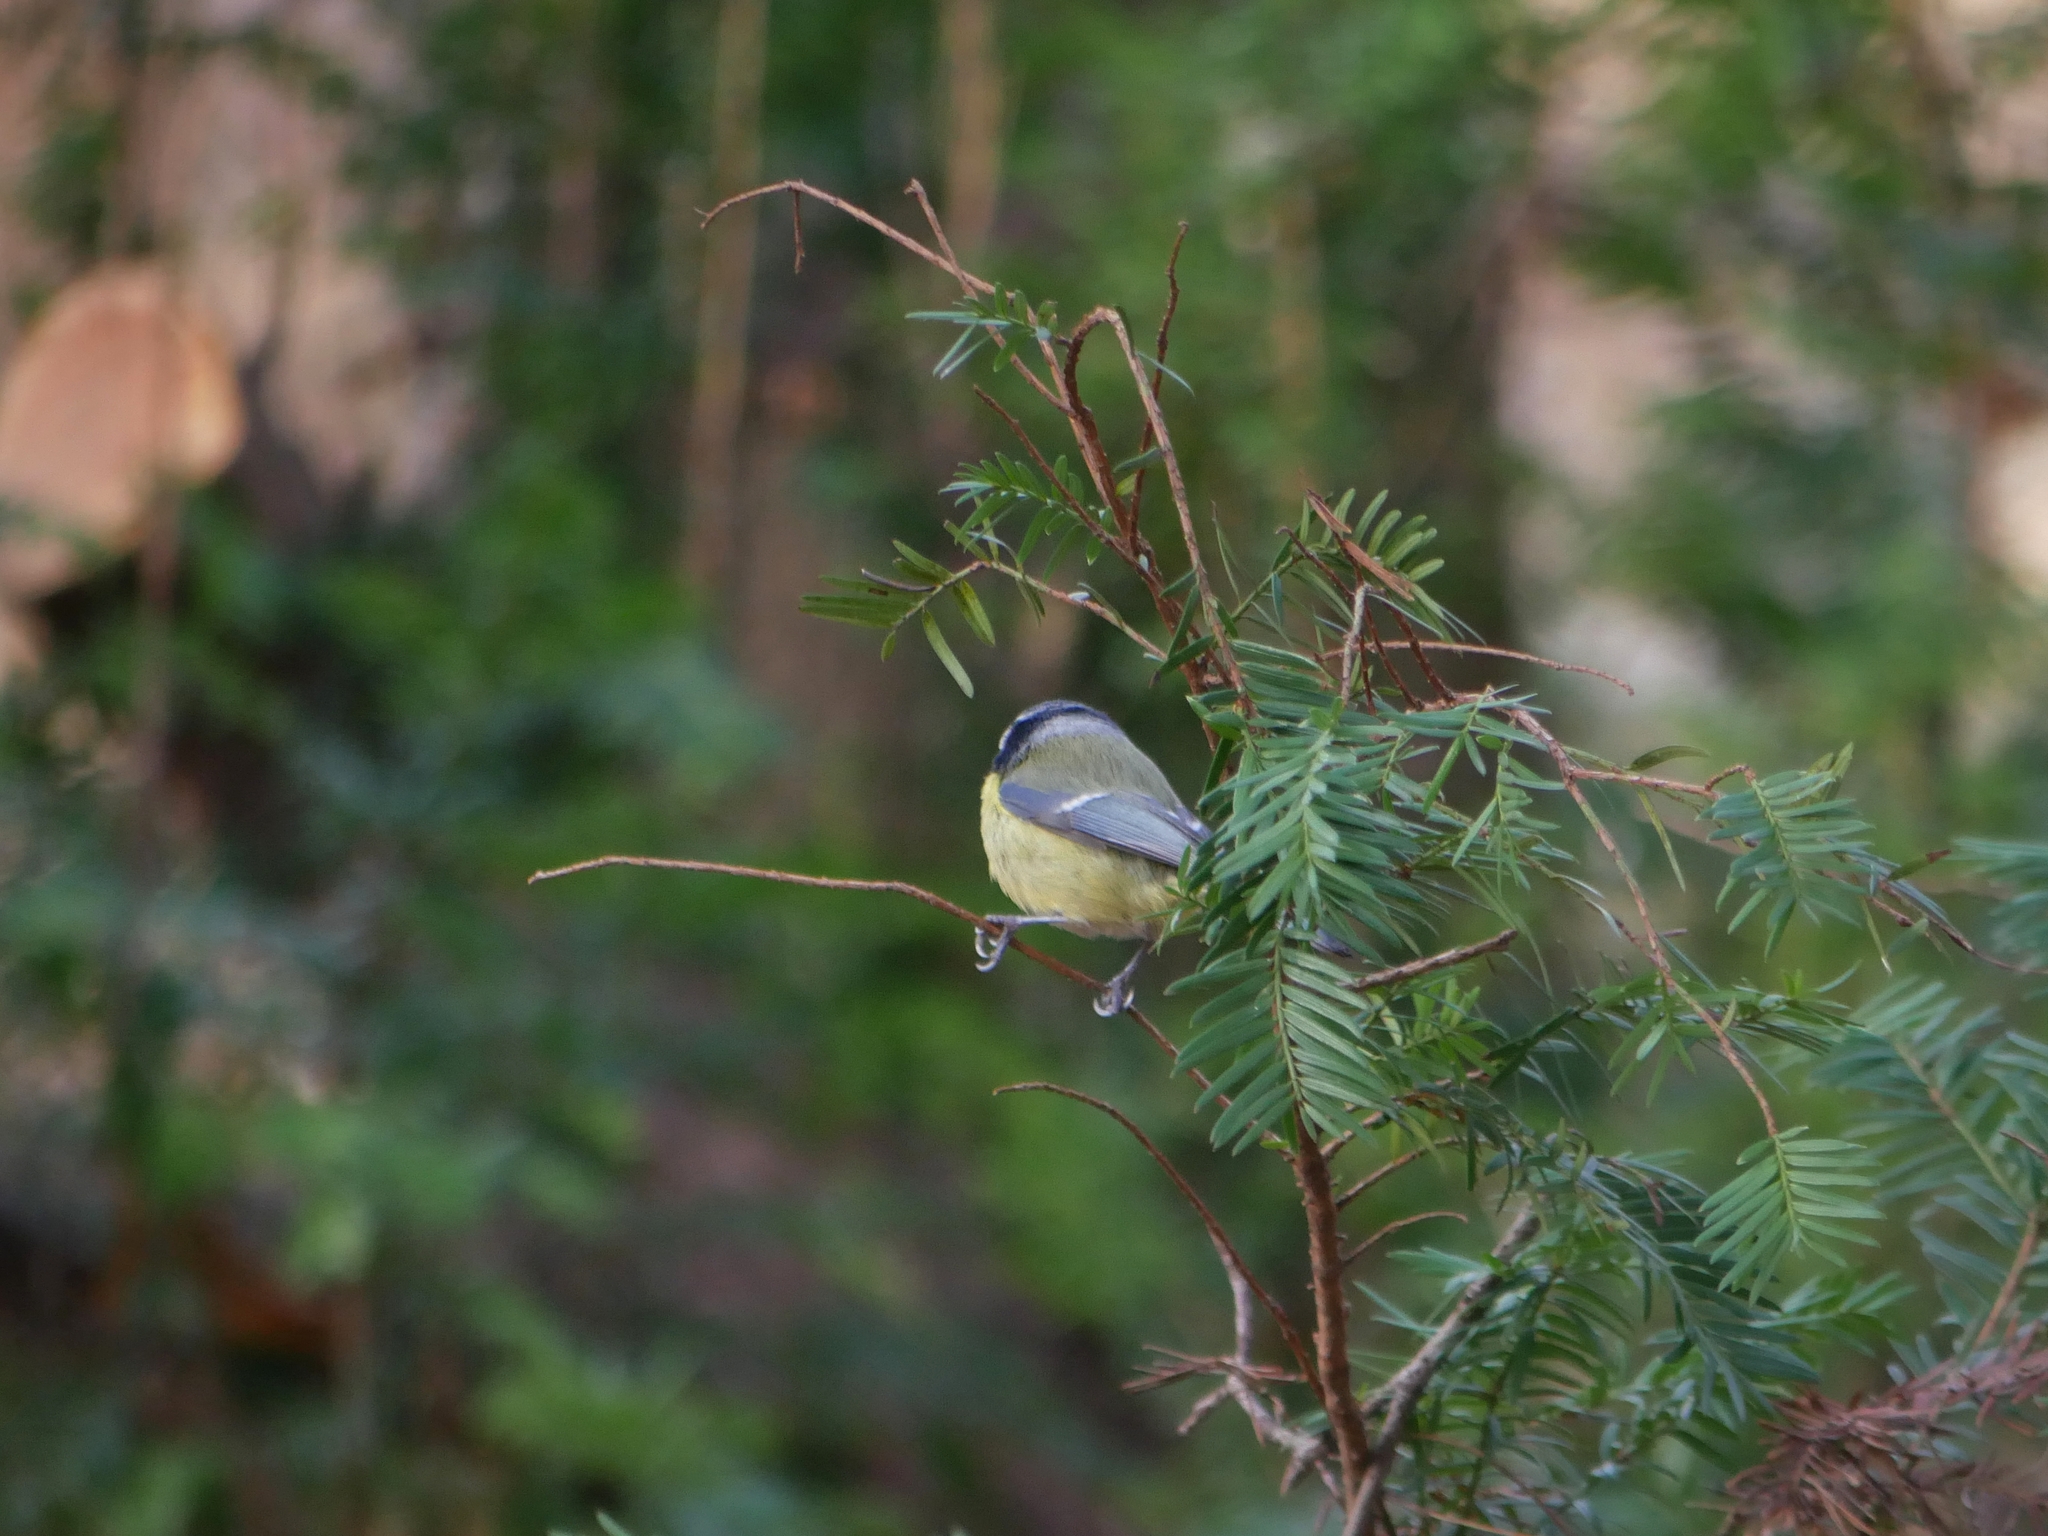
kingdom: Animalia
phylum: Chordata
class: Aves
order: Passeriformes
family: Paridae
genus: Cyanistes
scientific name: Cyanistes caeruleus
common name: Eurasian blue tit
